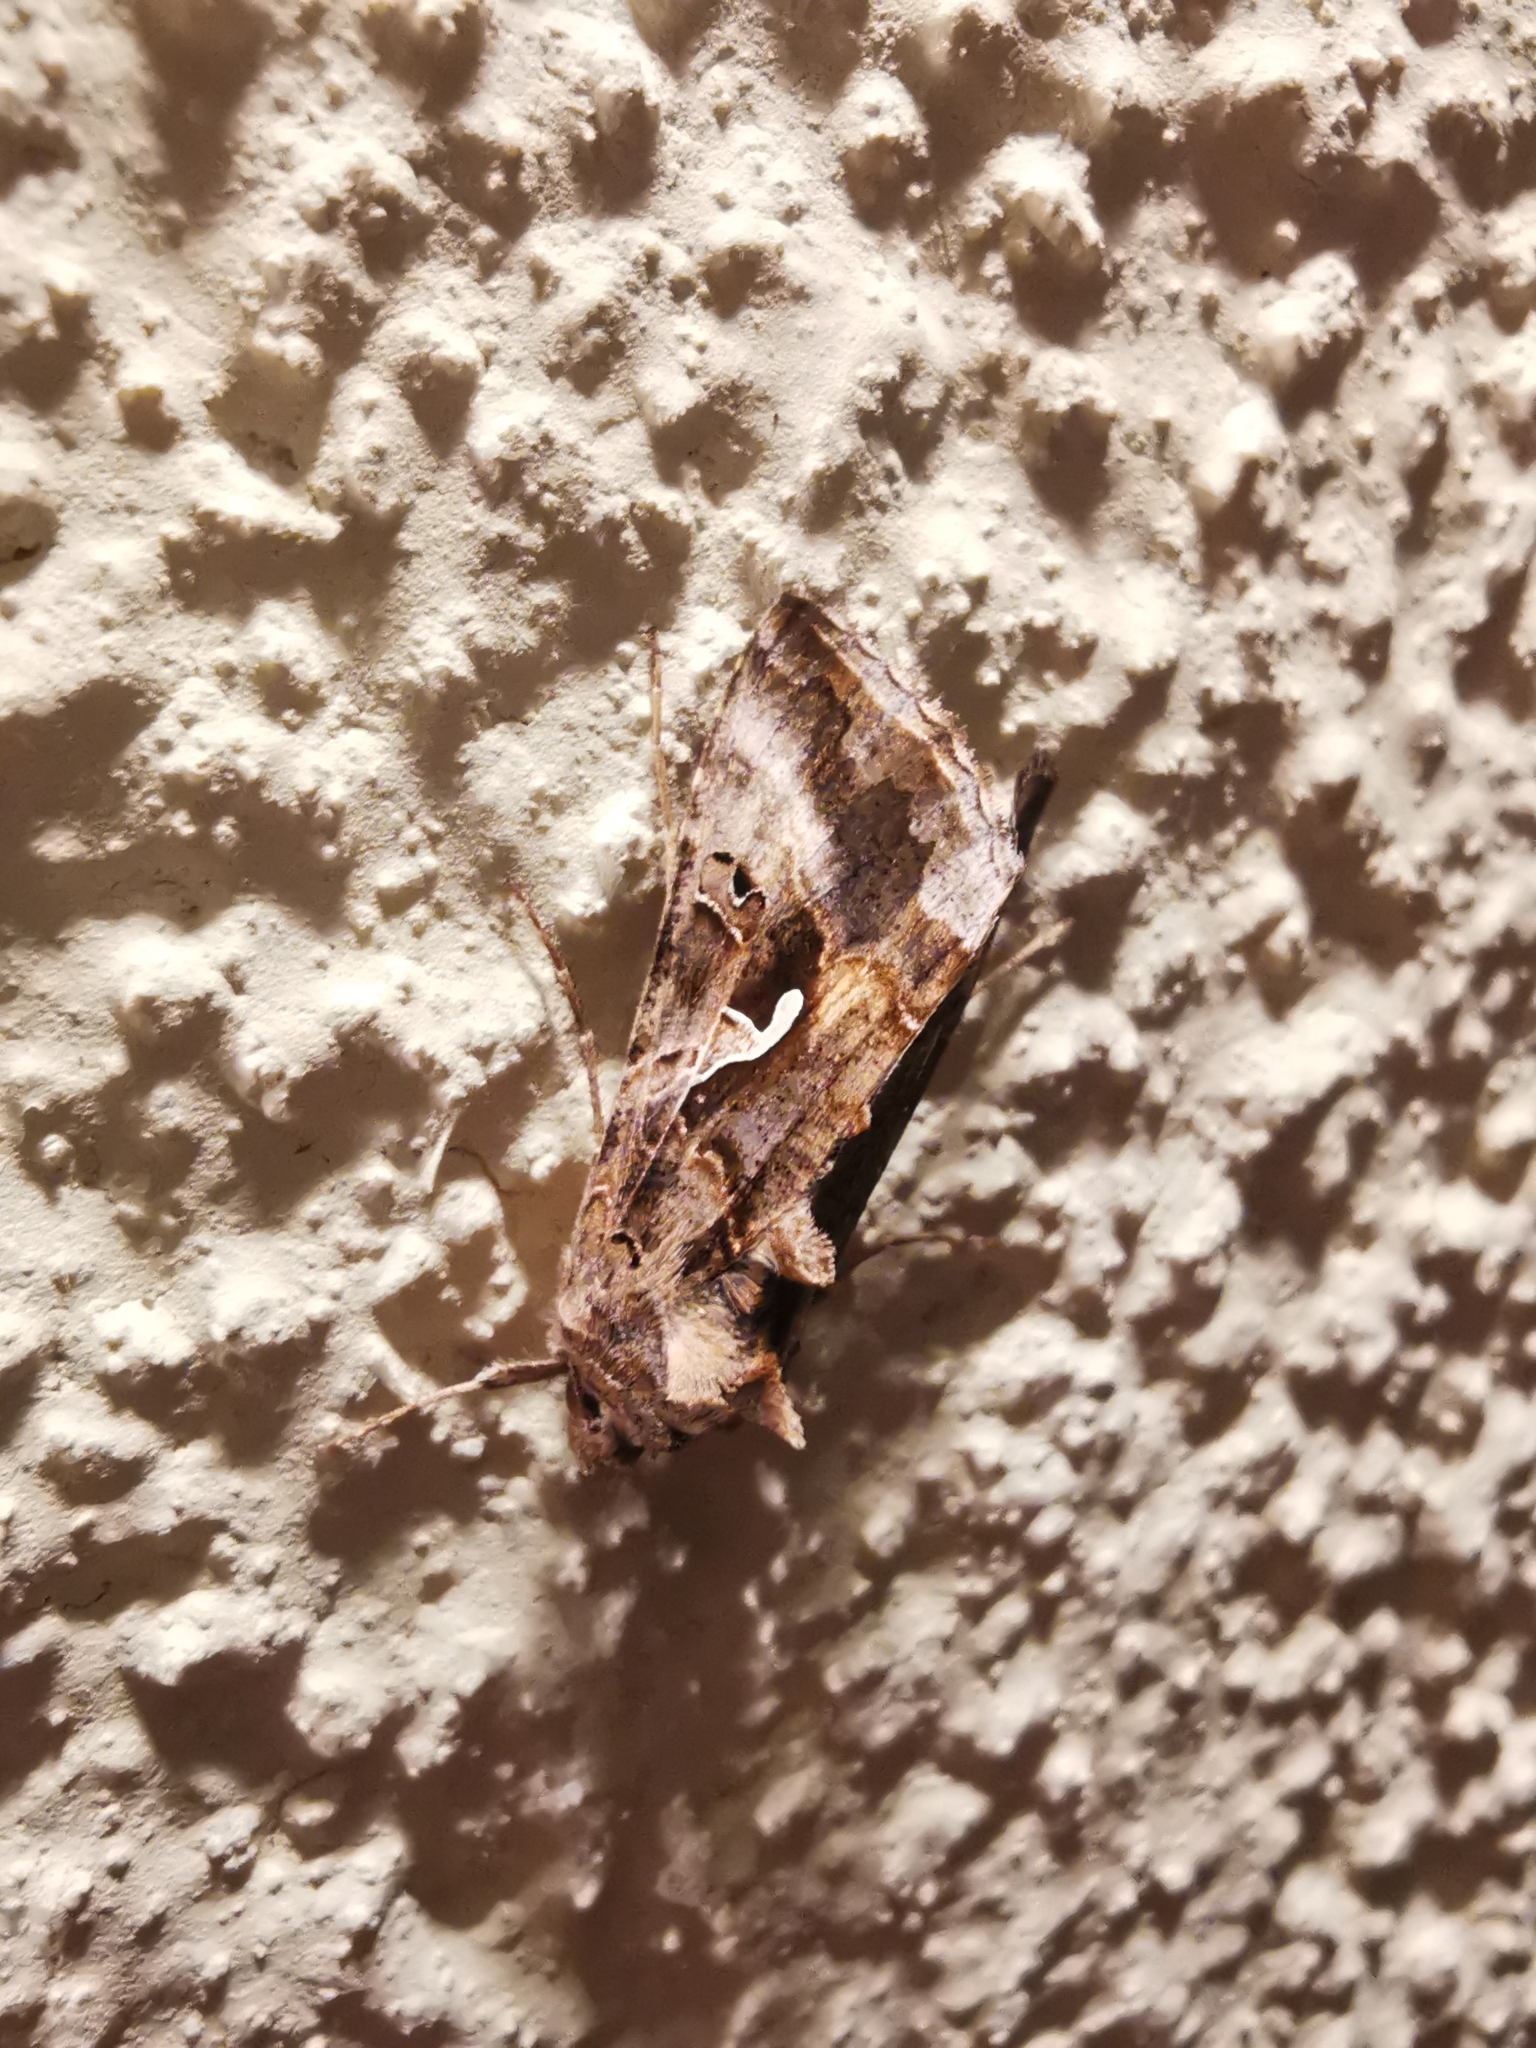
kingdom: Animalia
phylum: Arthropoda
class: Insecta
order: Lepidoptera
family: Noctuidae
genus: Autographa
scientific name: Autographa gamma
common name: Silver y
